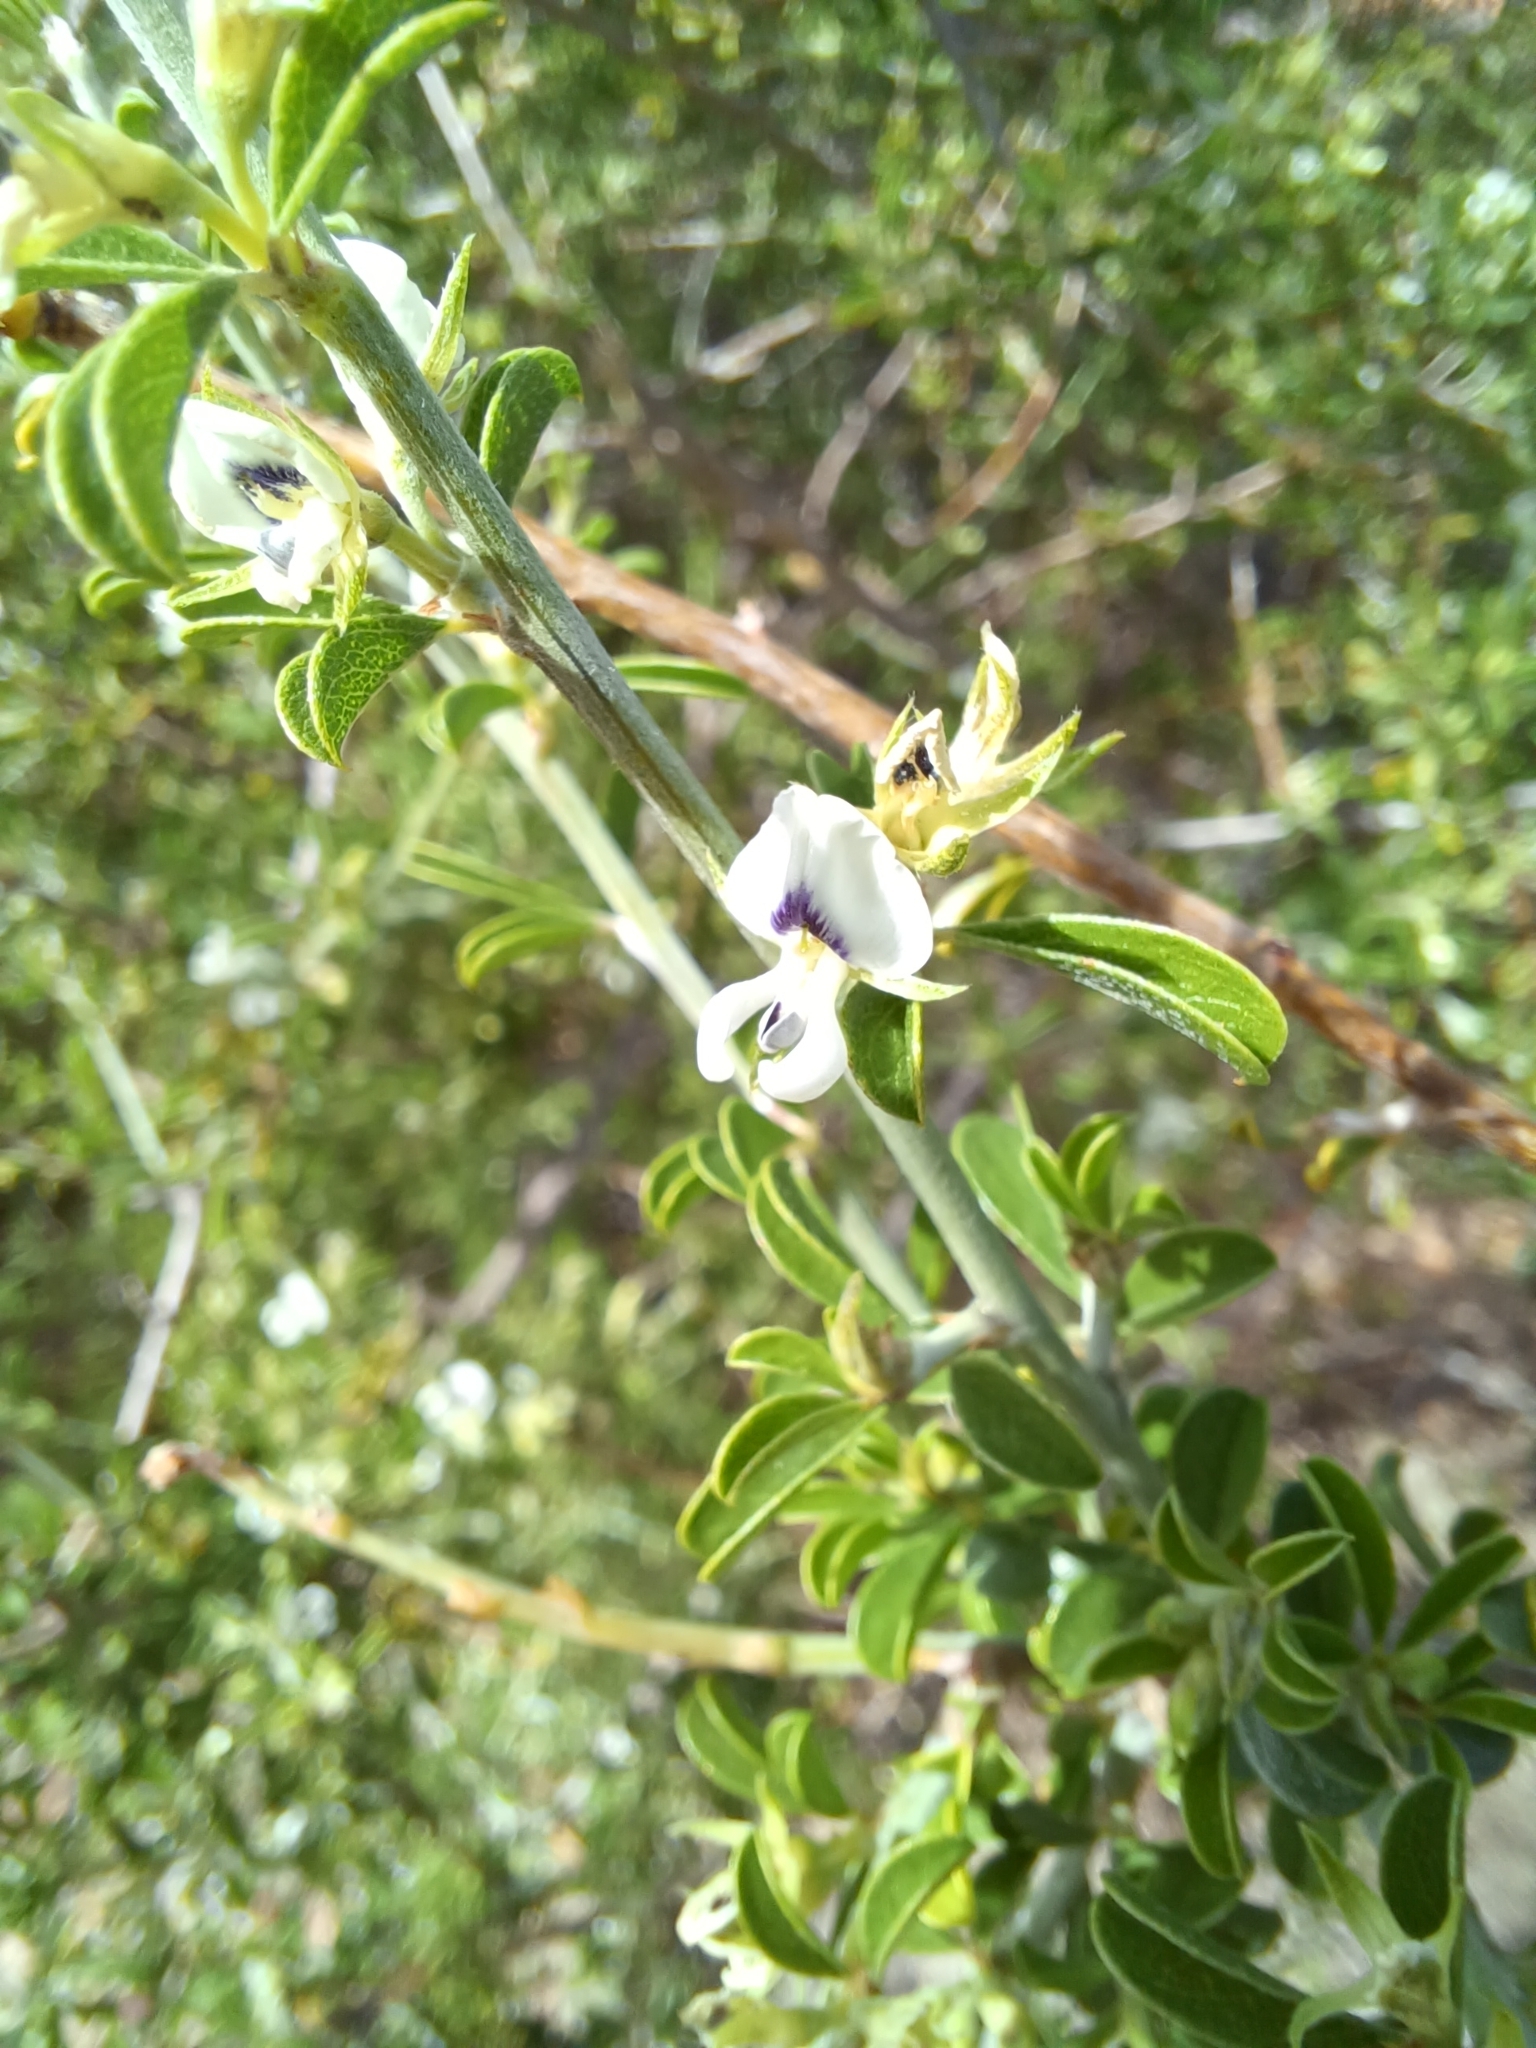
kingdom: Plantae
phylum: Tracheophyta
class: Magnoliopsida
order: Fabales
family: Fabaceae
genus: Psoralea
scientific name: Psoralea candicans
